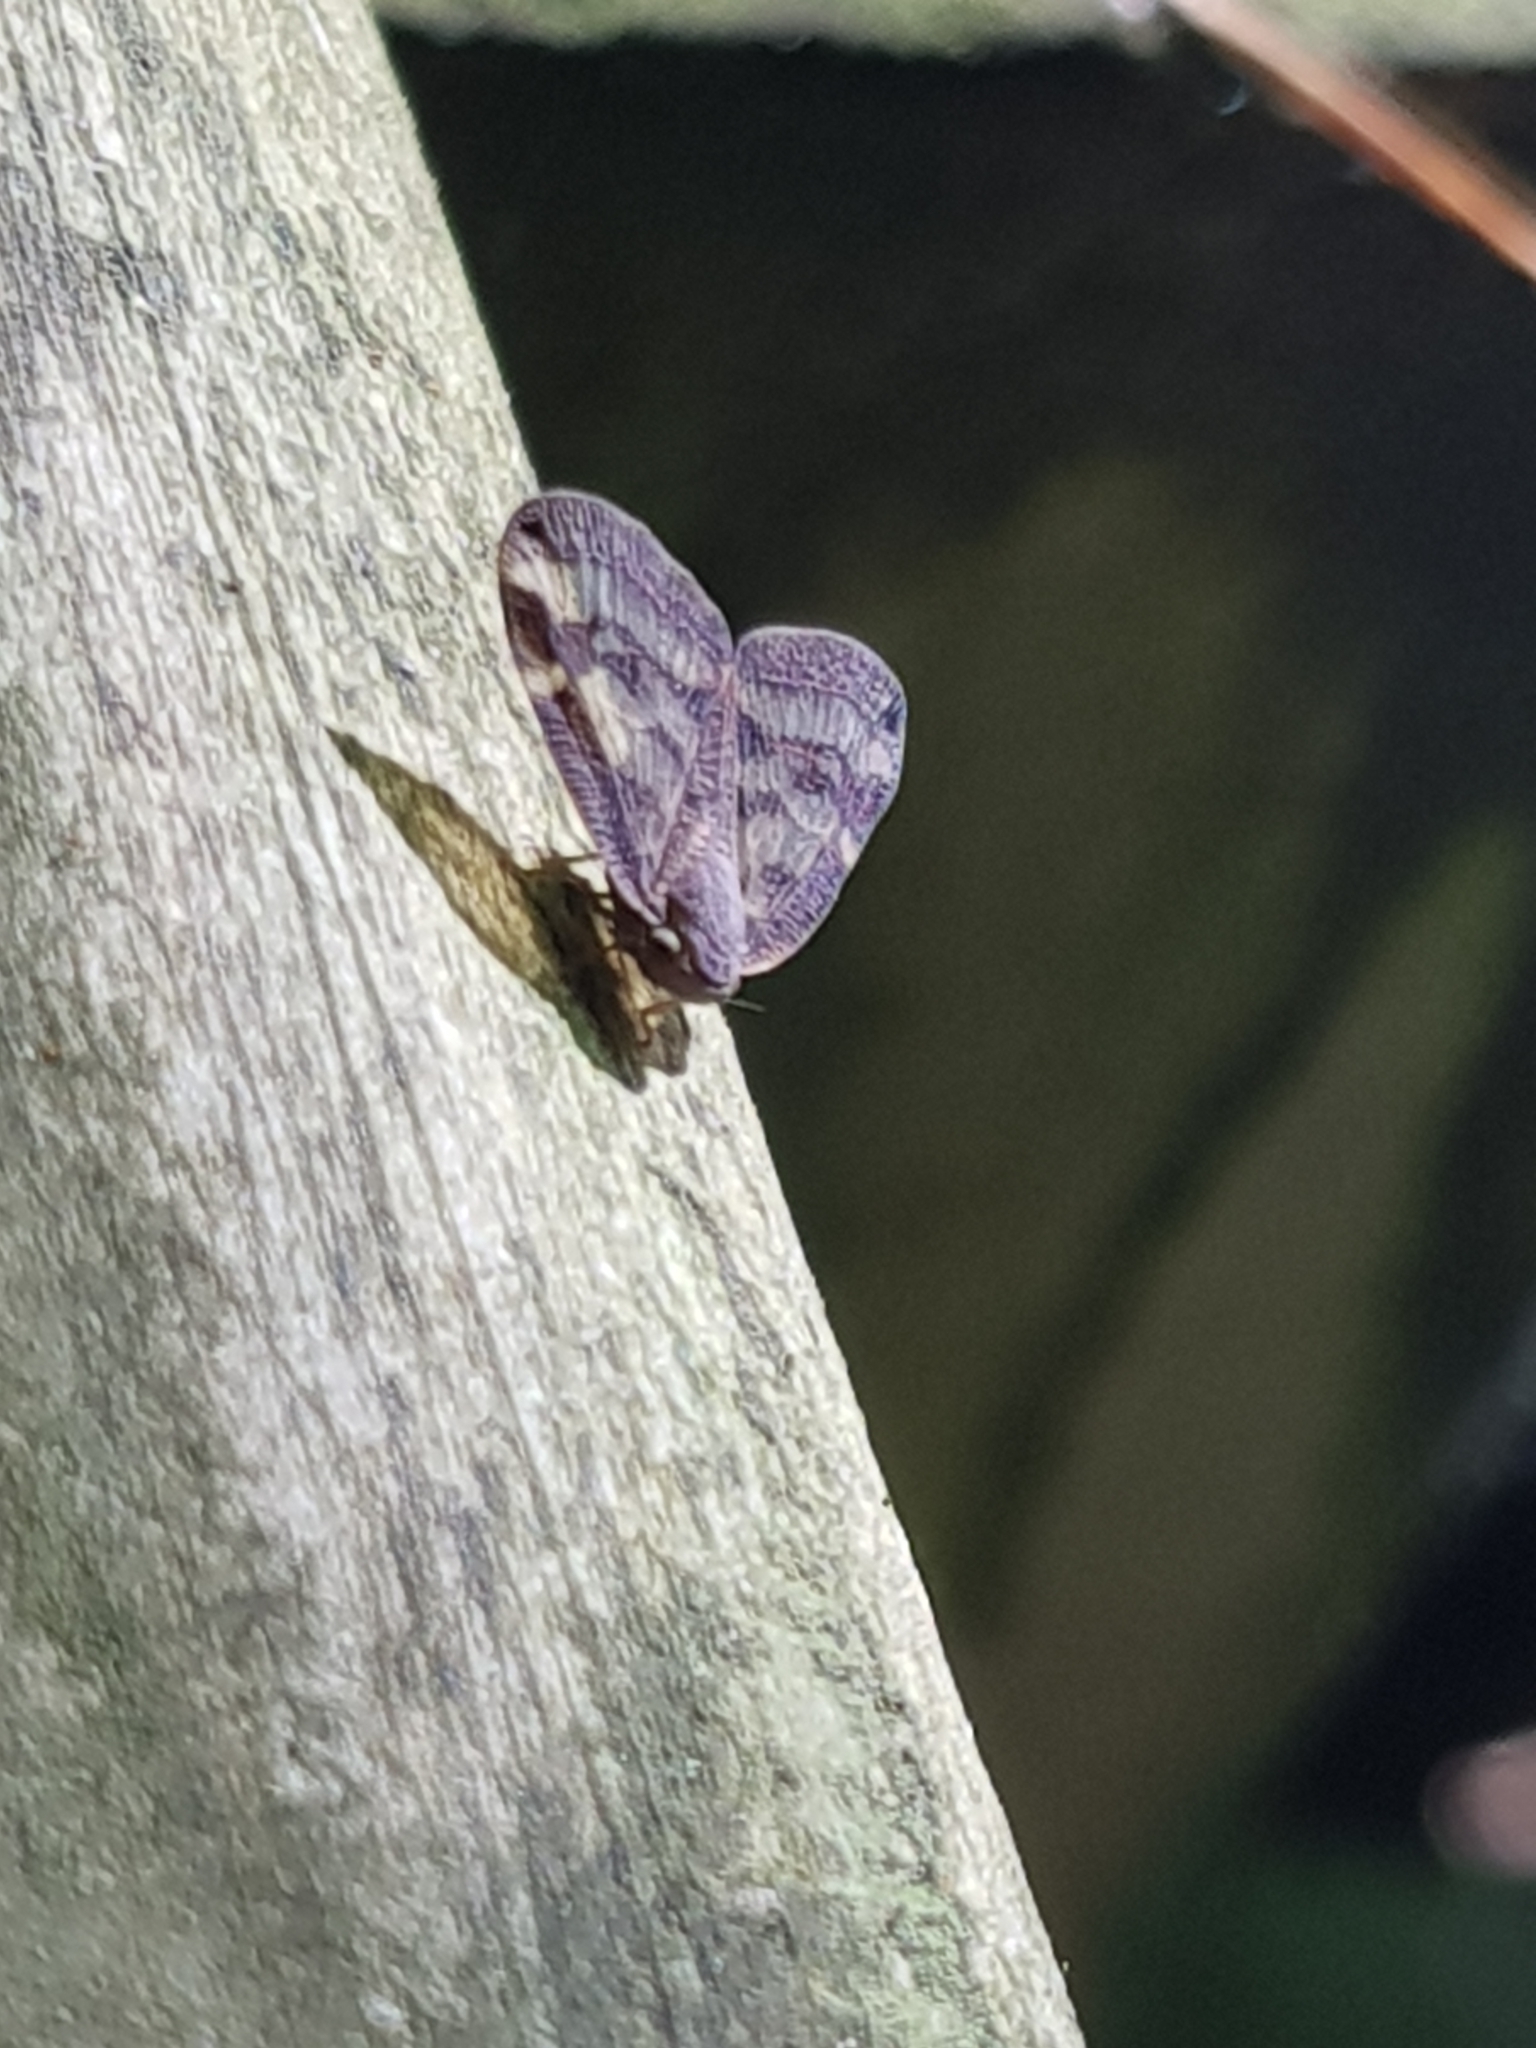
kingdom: Animalia
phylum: Arthropoda
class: Insecta
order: Hemiptera
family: Ricaniidae
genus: Scolypopa
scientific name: Scolypopa australis
